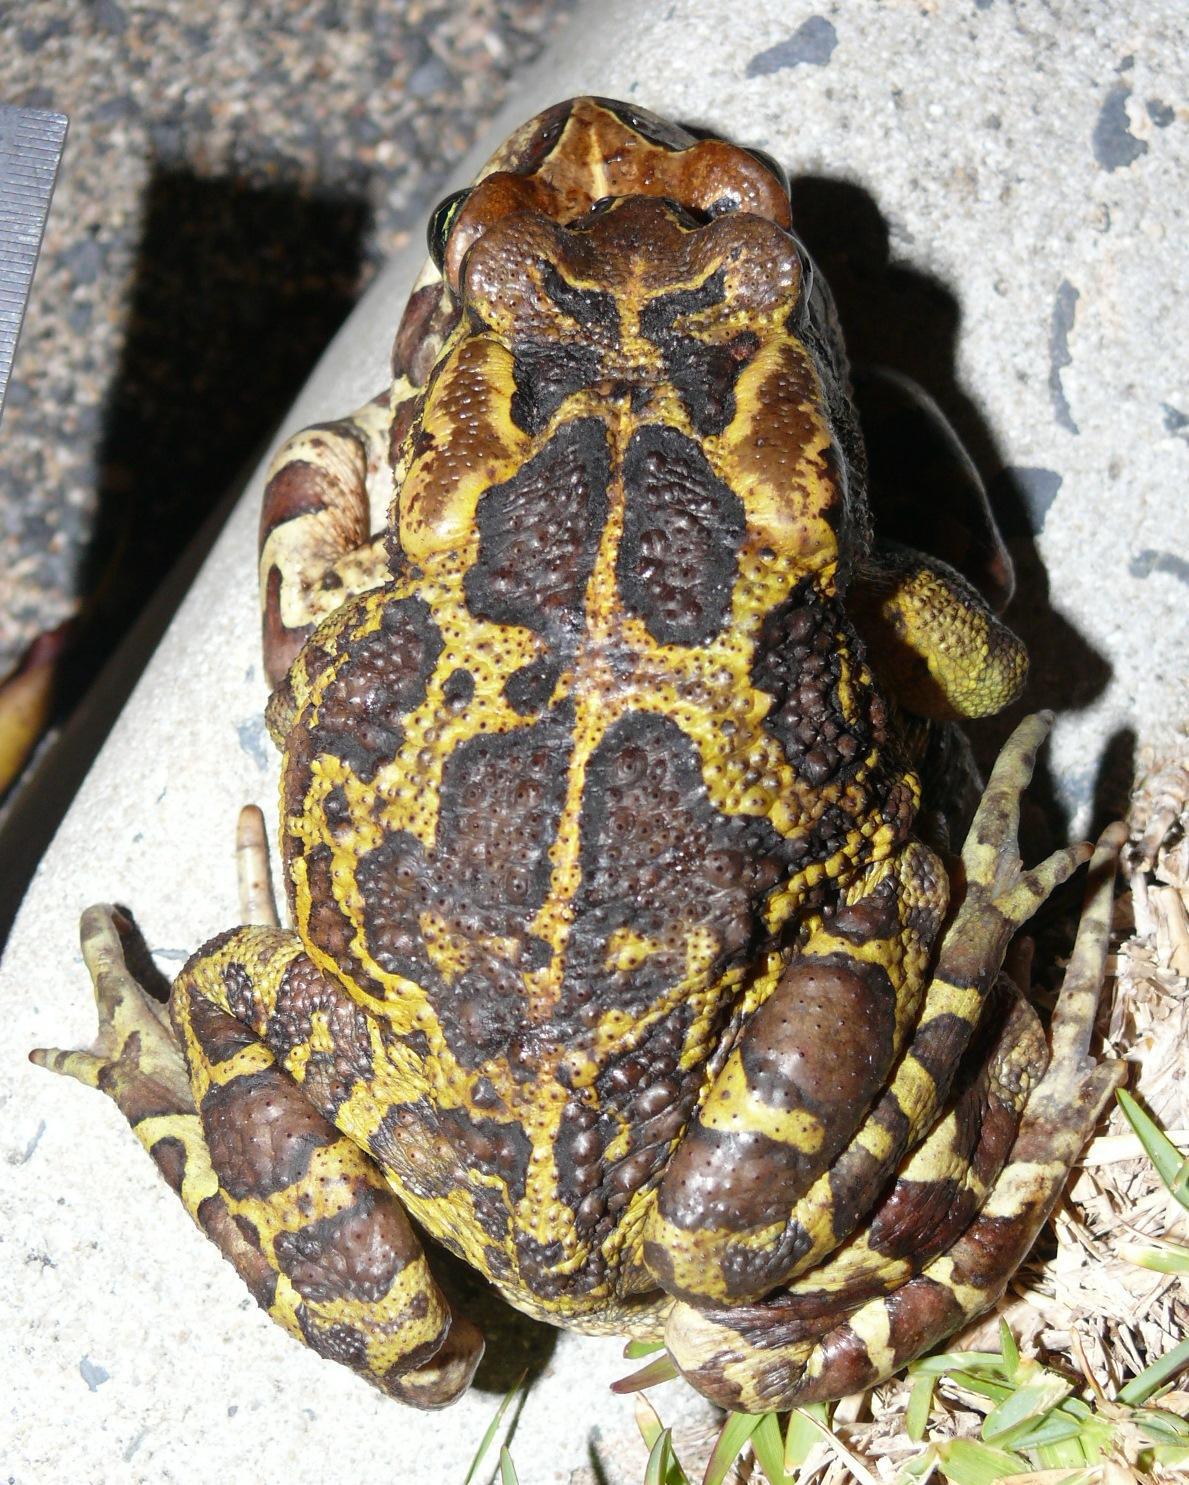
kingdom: Animalia
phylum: Chordata
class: Amphibia
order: Anura
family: Bufonidae
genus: Sclerophrys
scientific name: Sclerophrys pantherina
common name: Panther toad
